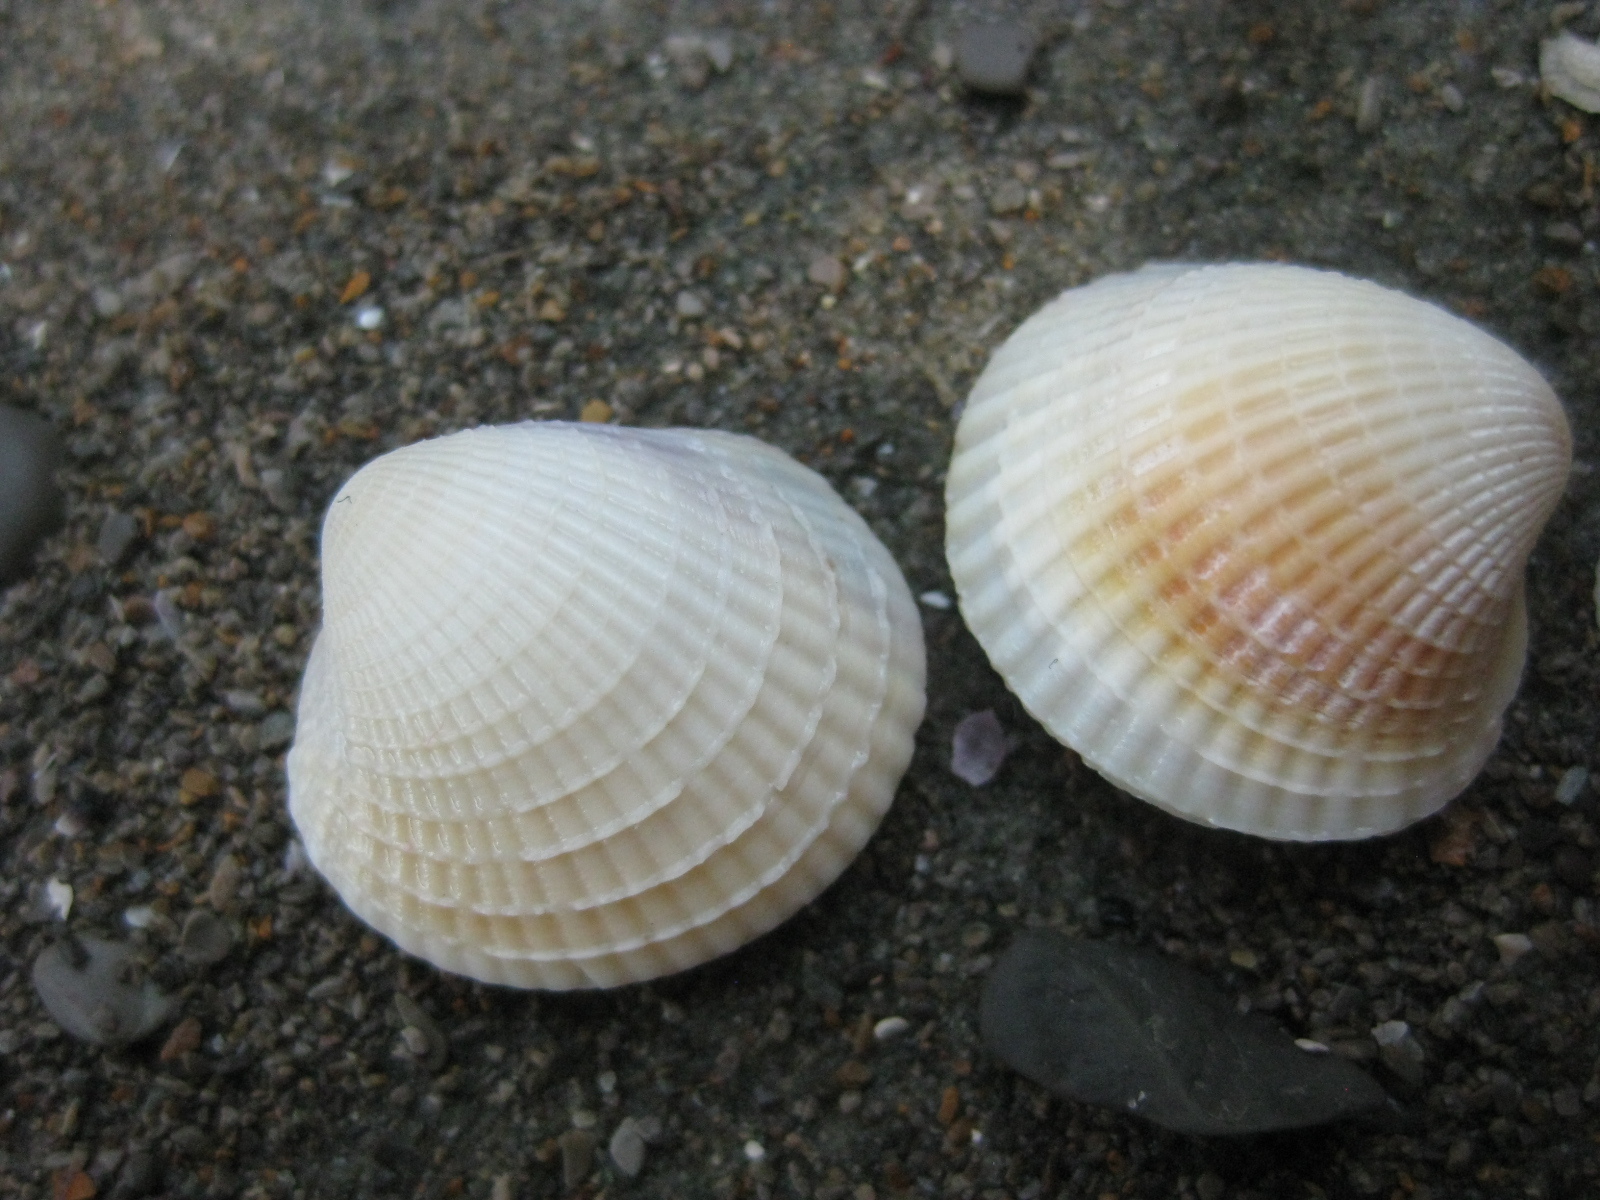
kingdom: Animalia
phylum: Mollusca
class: Bivalvia
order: Venerida
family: Veneridae
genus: Austrovenus
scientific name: Austrovenus stutchburyi
